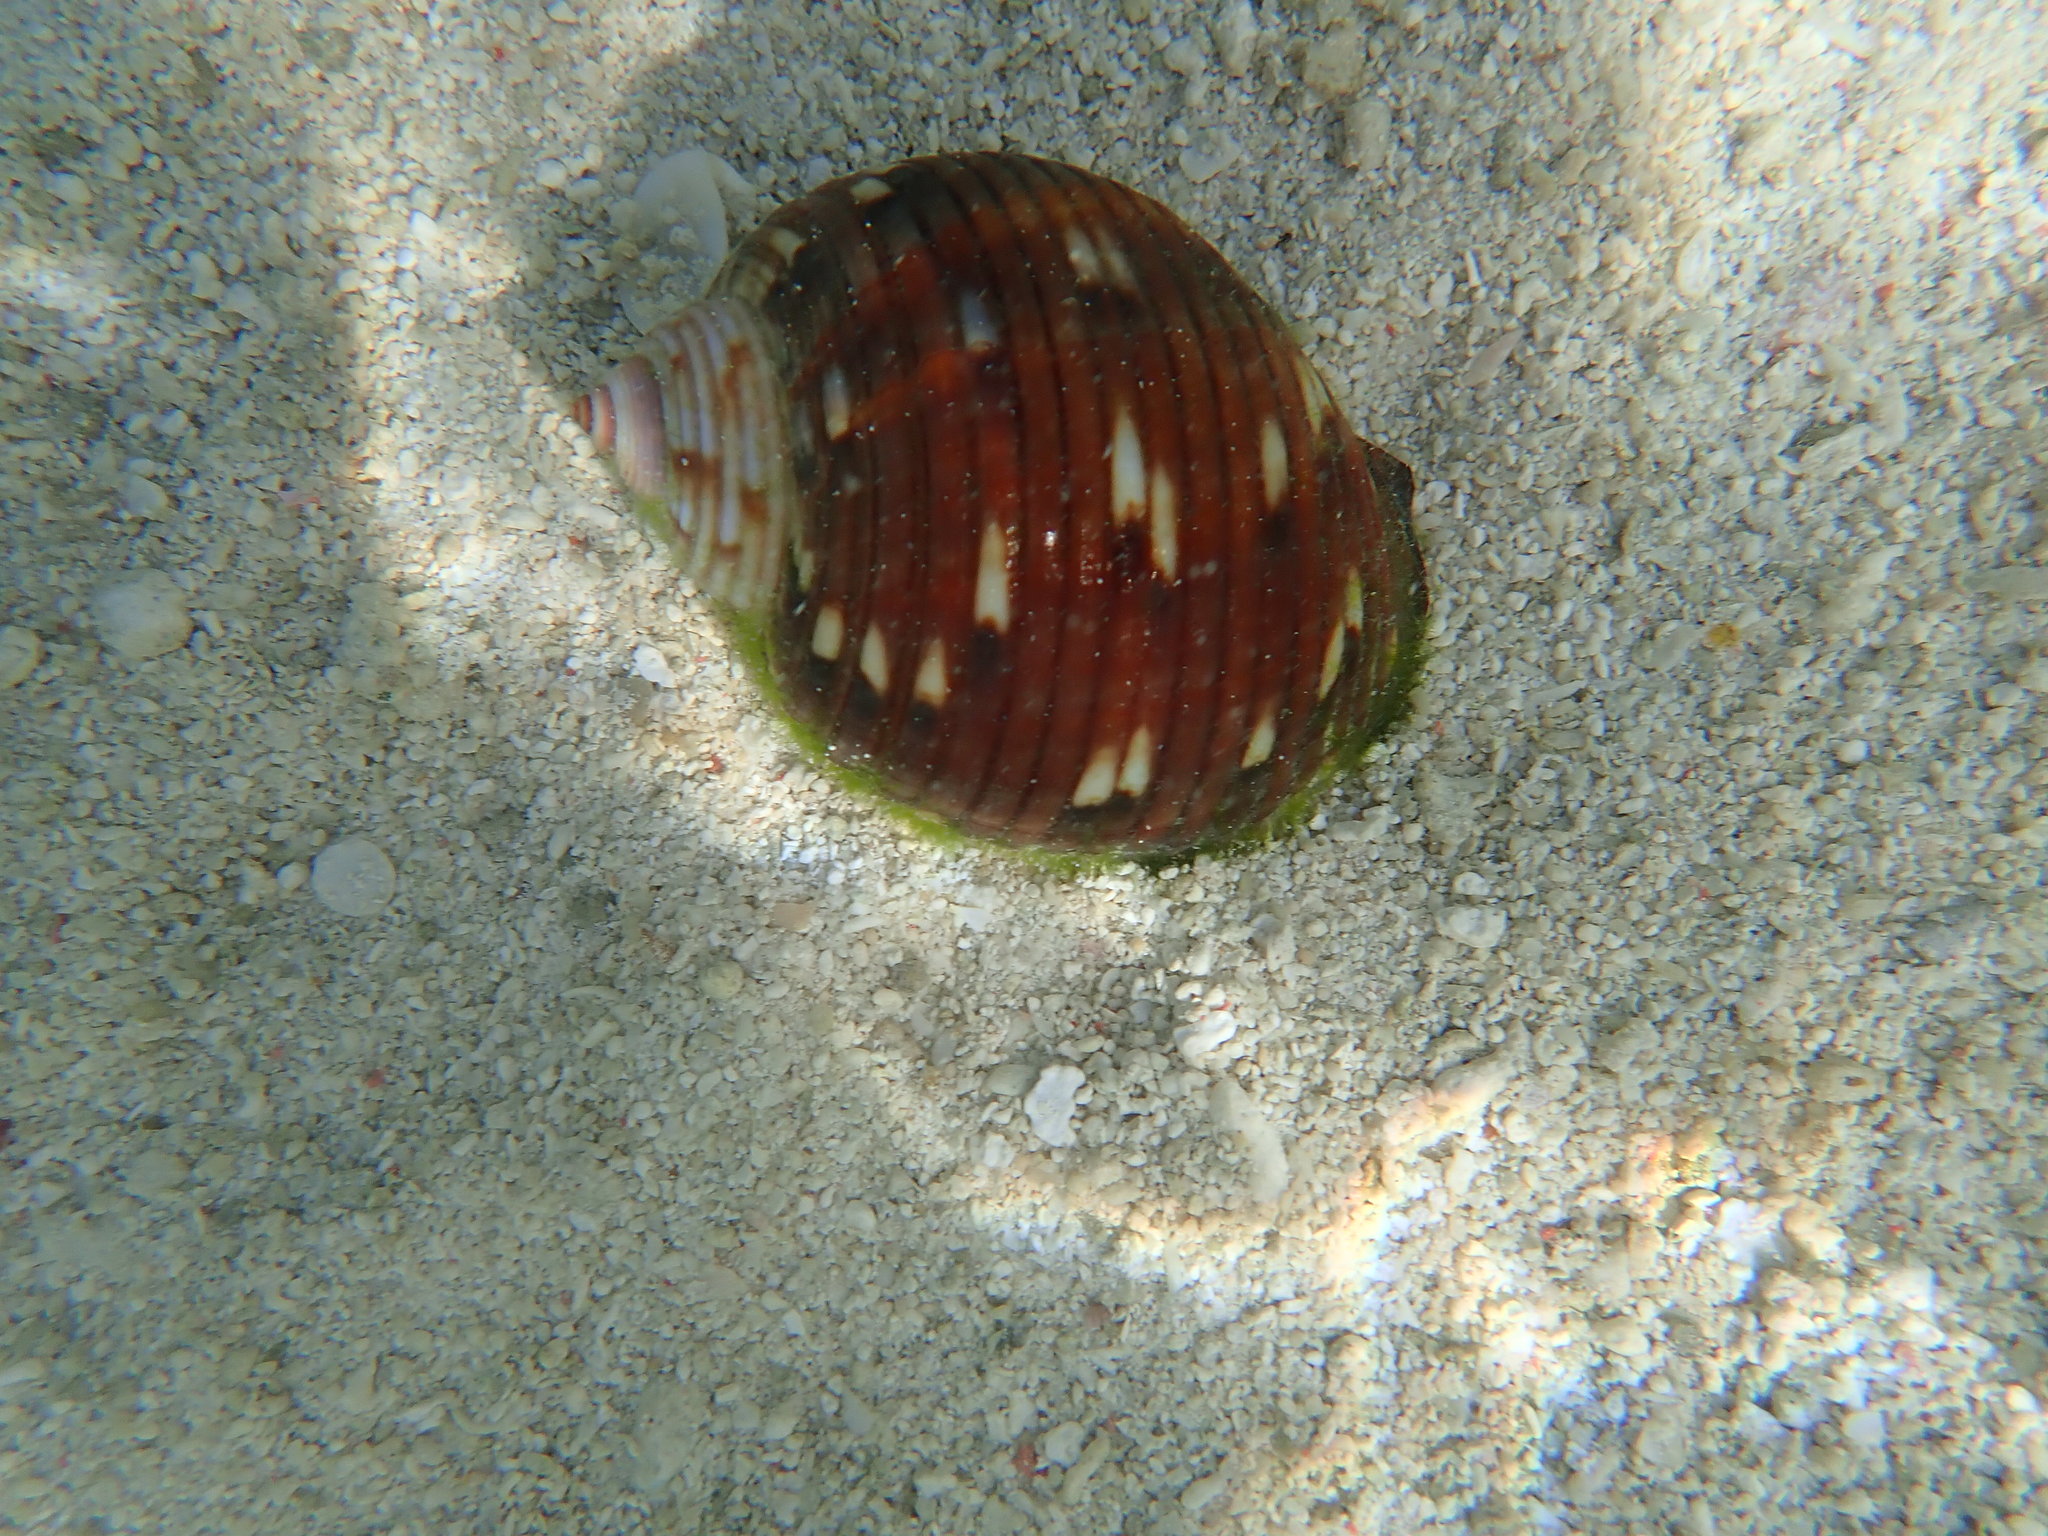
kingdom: Animalia
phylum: Mollusca
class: Gastropoda
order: Littorinimorpha
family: Tonnidae
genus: Tonna
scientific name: Tonna poppei
